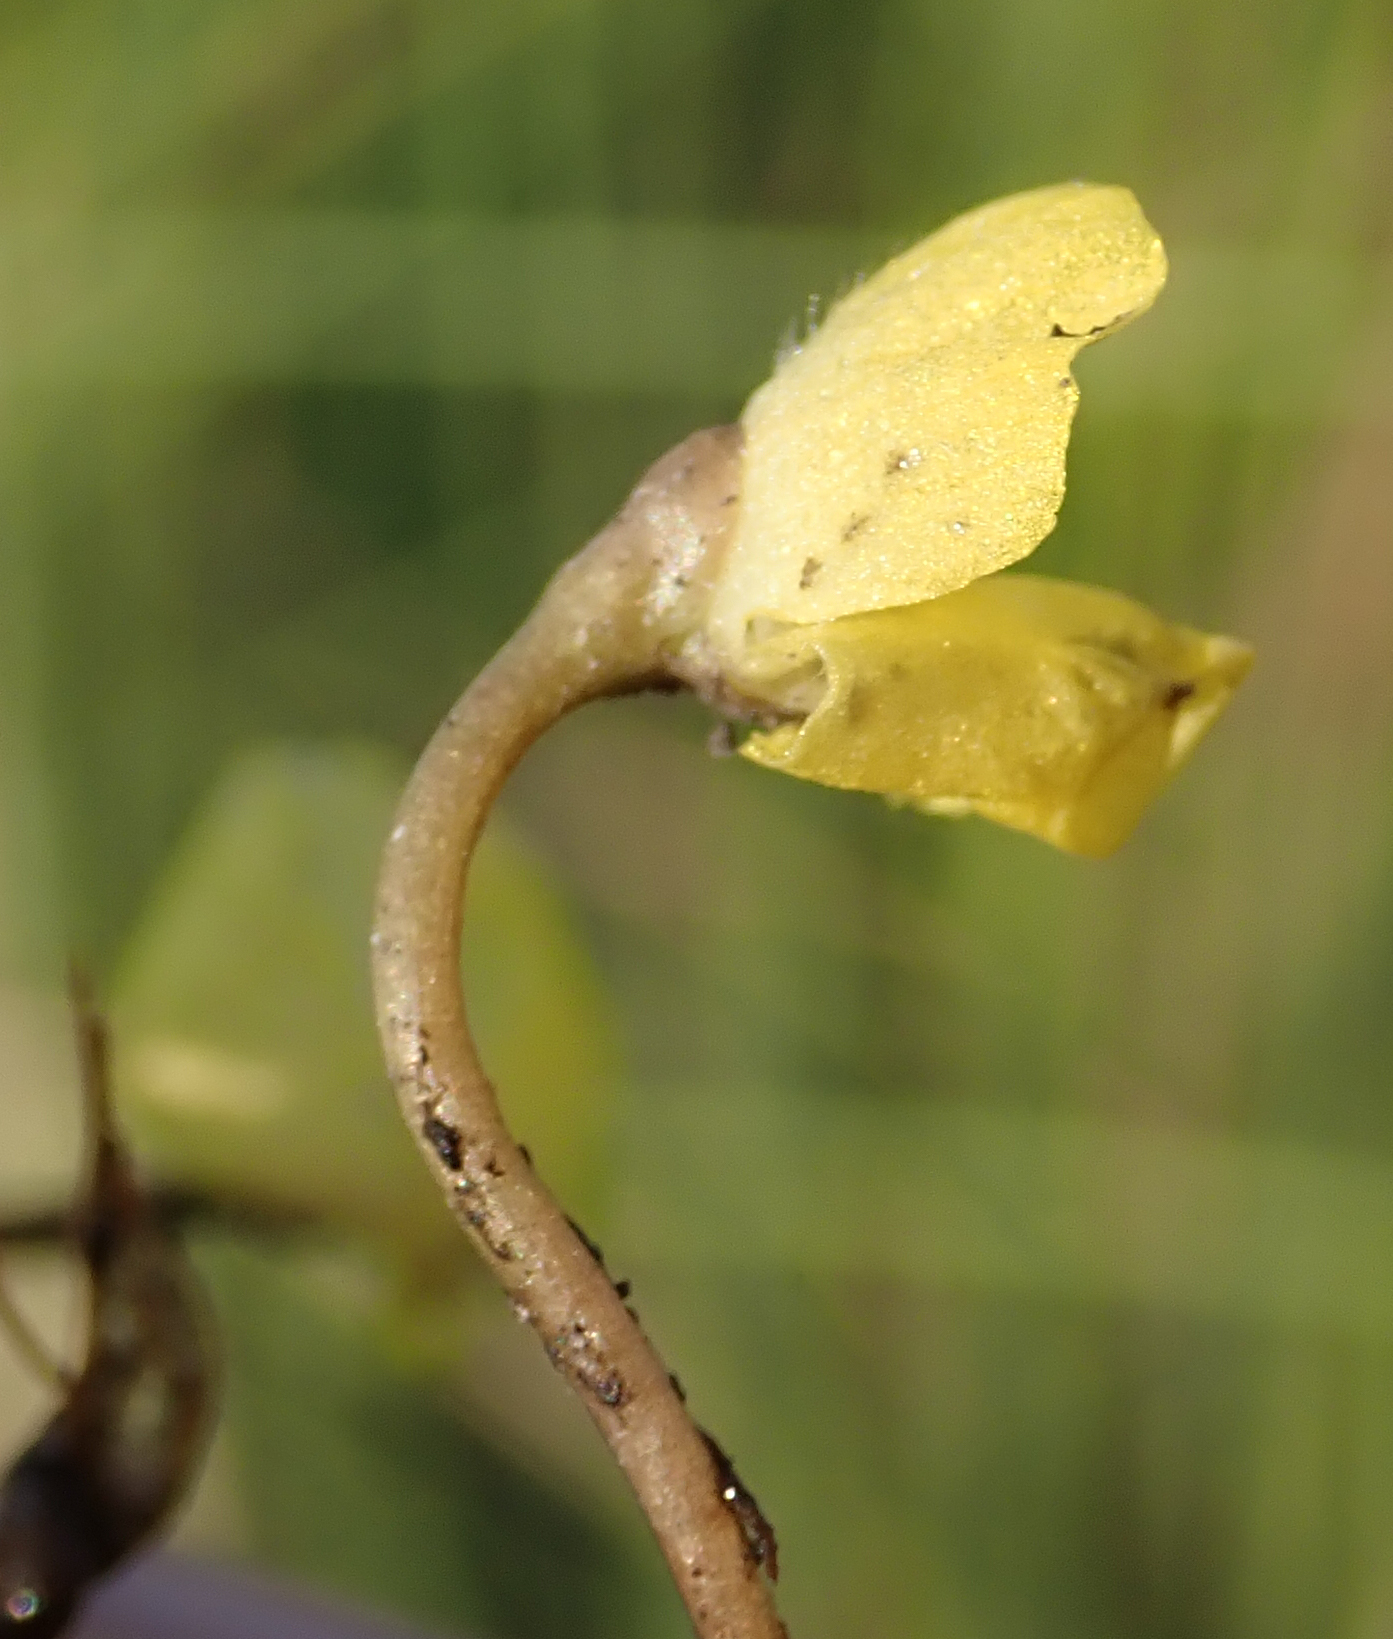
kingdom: Plantae
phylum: Tracheophyta
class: Magnoliopsida
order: Lamiales
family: Lentibulariaceae
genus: Utricularia
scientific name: Utricularia reflexa
